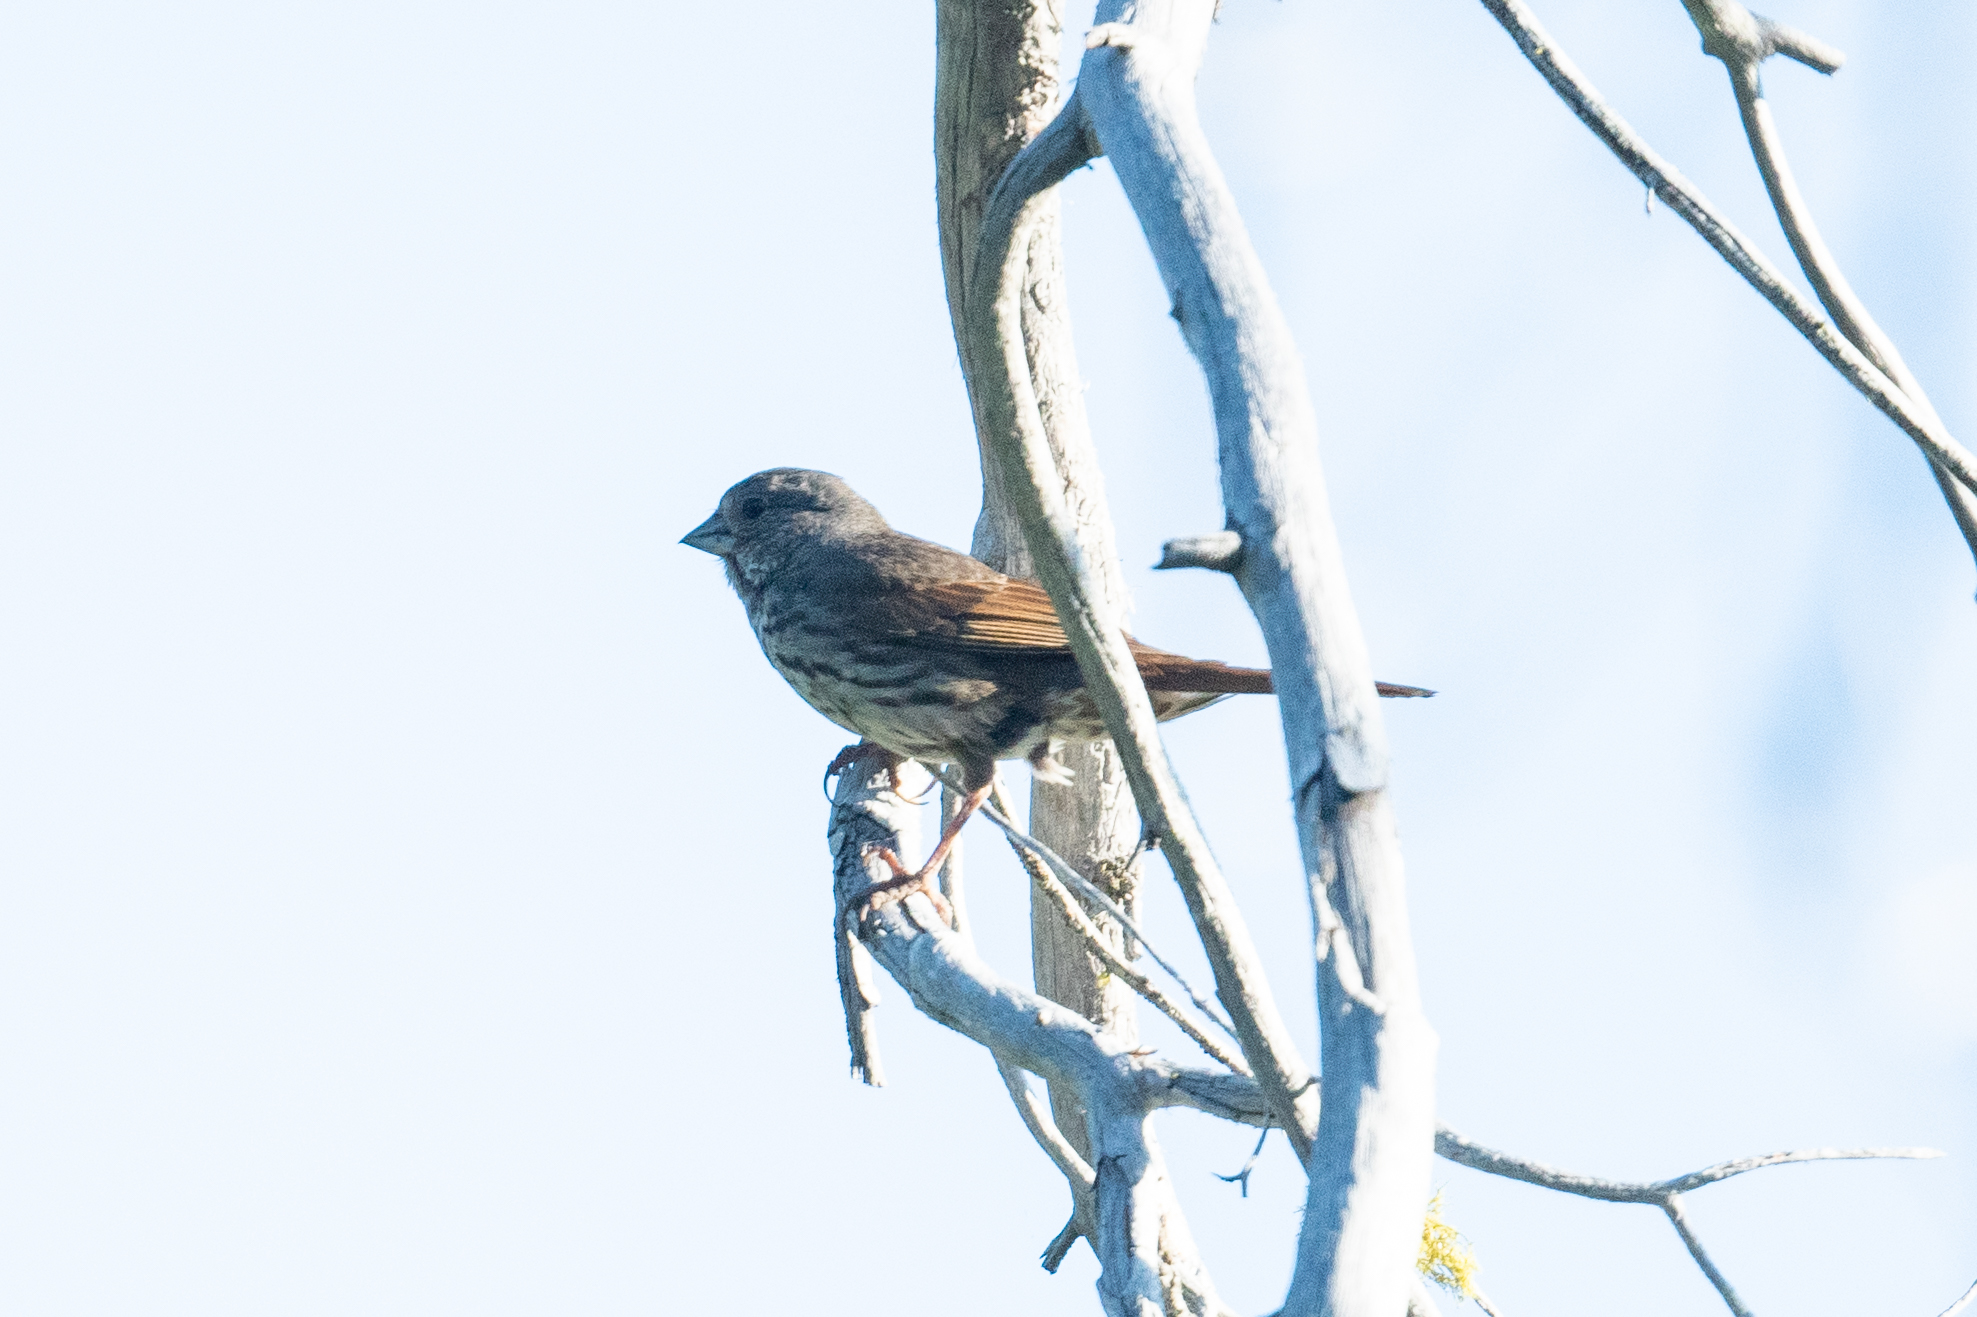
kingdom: Animalia
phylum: Chordata
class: Aves
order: Passeriformes
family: Passerellidae
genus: Passerella
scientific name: Passerella iliaca
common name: Fox sparrow
